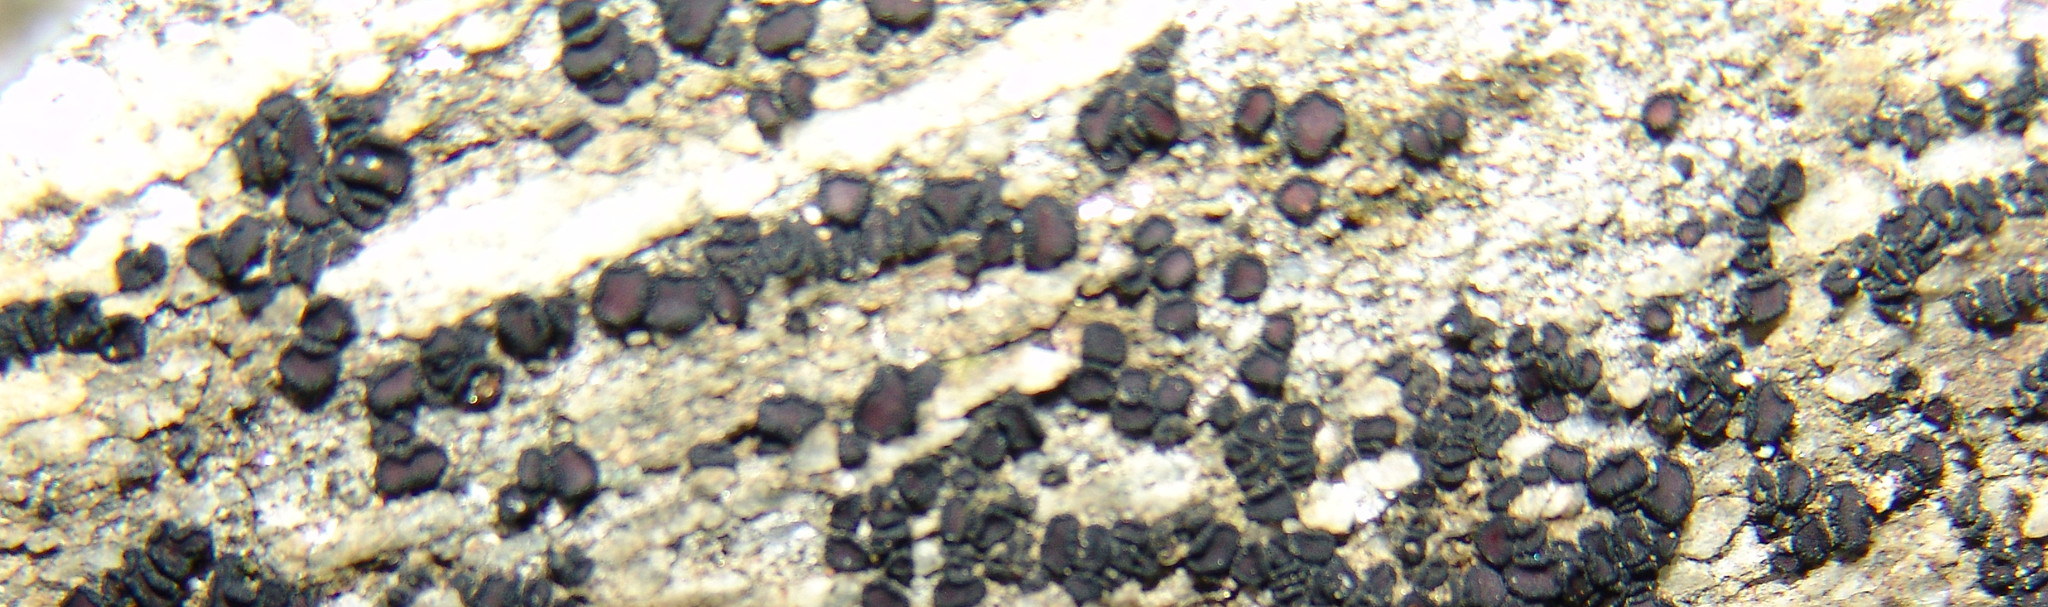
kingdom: Fungi
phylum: Ascomycota
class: Lecanoromycetes
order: Acarosporales
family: Acarosporaceae
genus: Sarcogyne
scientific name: Sarcogyne regularis
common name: Frosted grain-spored lichen
